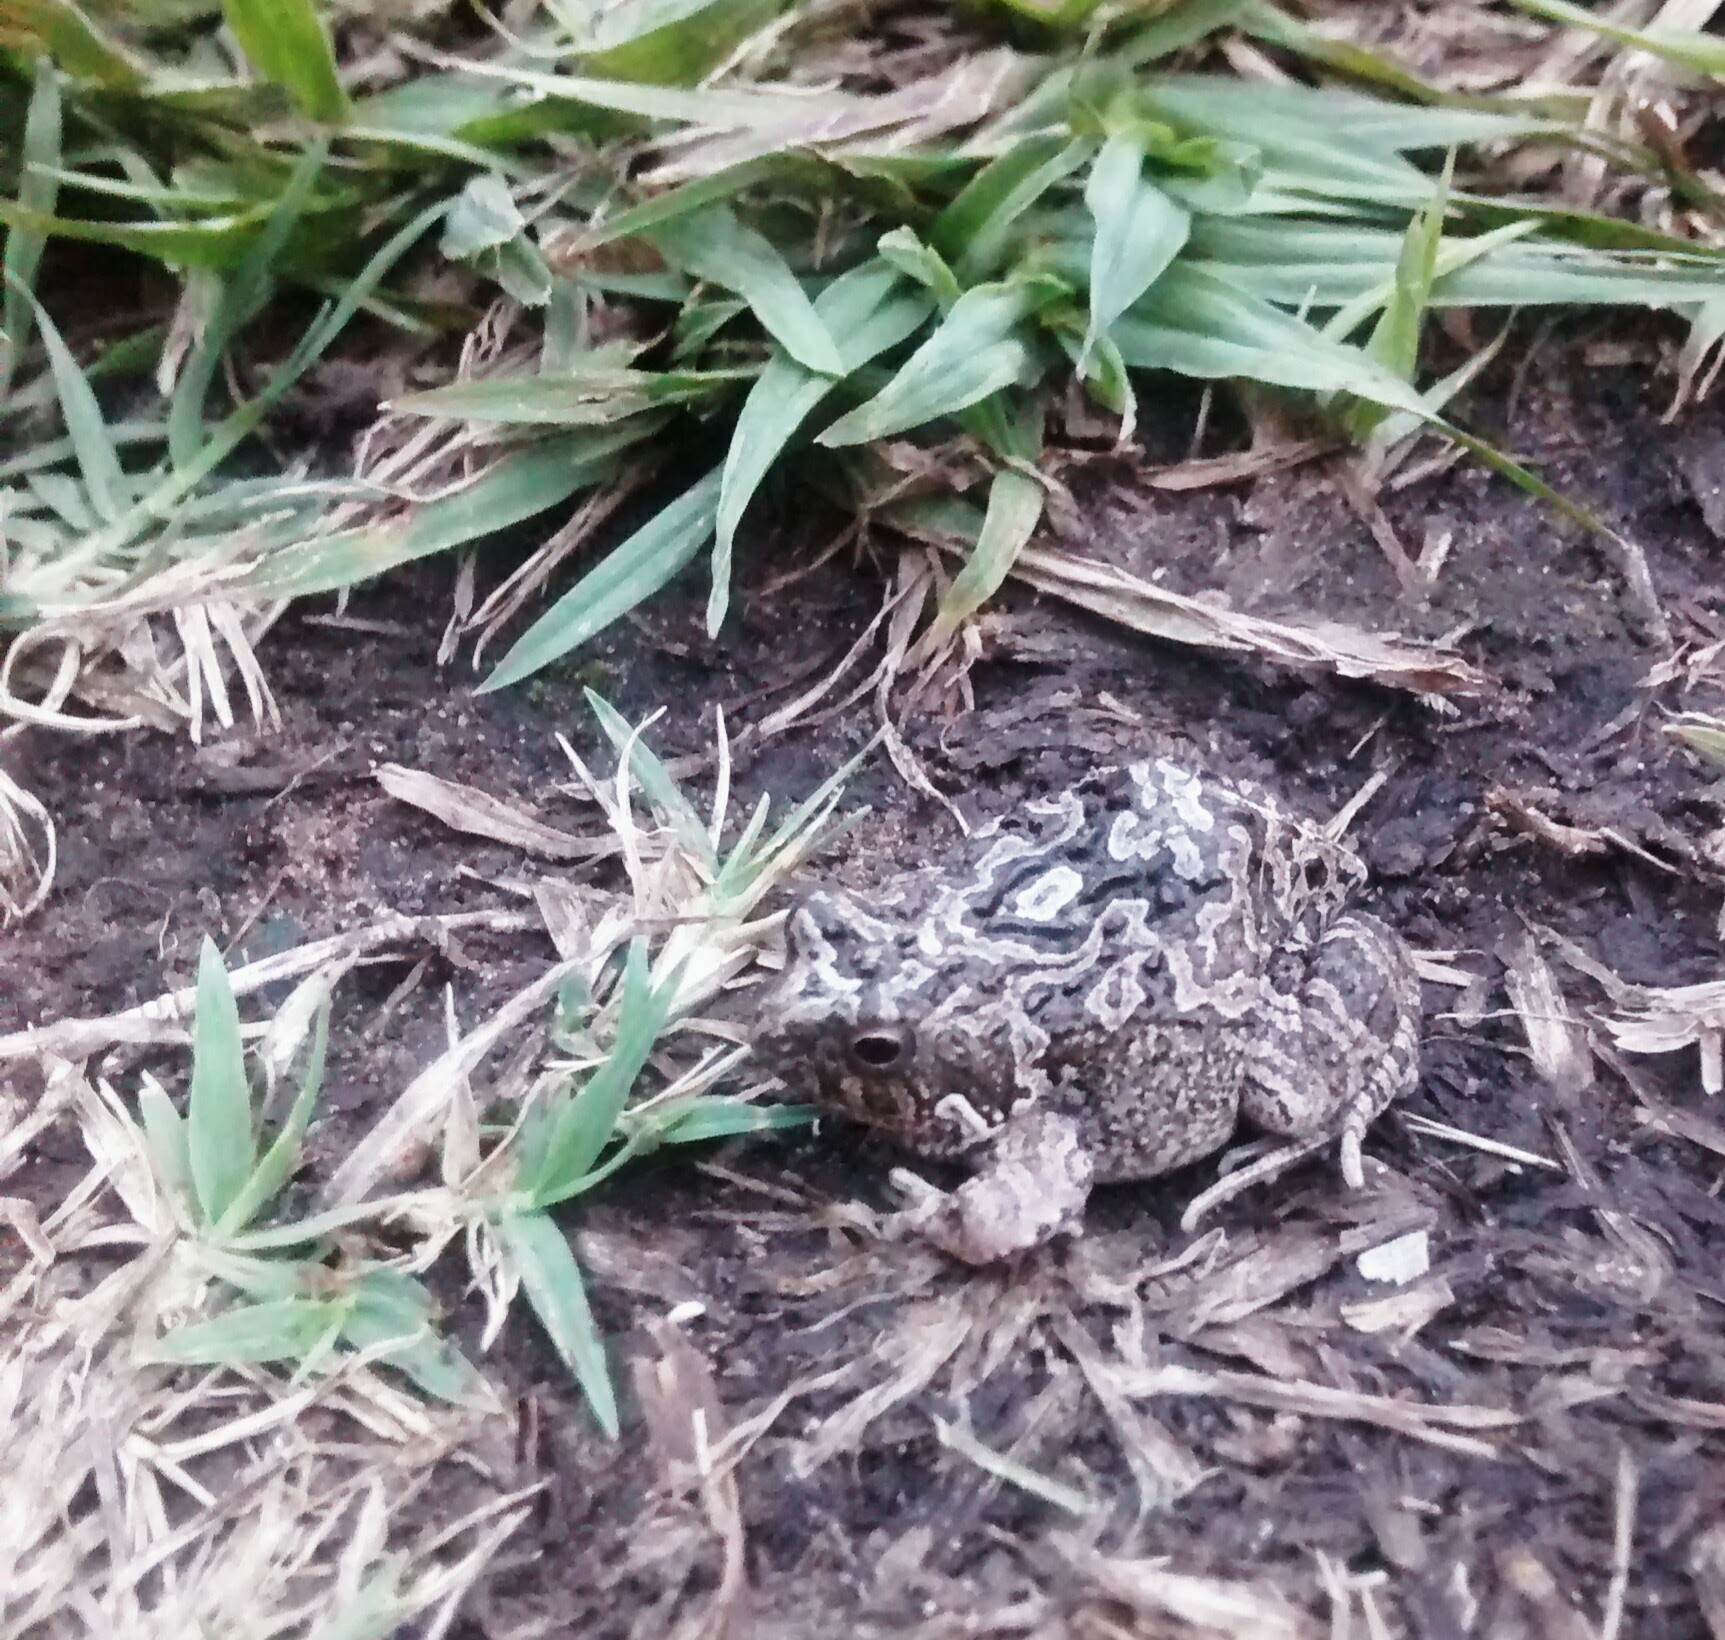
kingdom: Animalia
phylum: Chordata
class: Amphibia
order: Anura
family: Leptodactylidae
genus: Physalaemus
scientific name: Physalaemus biligonigerus
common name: Weeping frog
